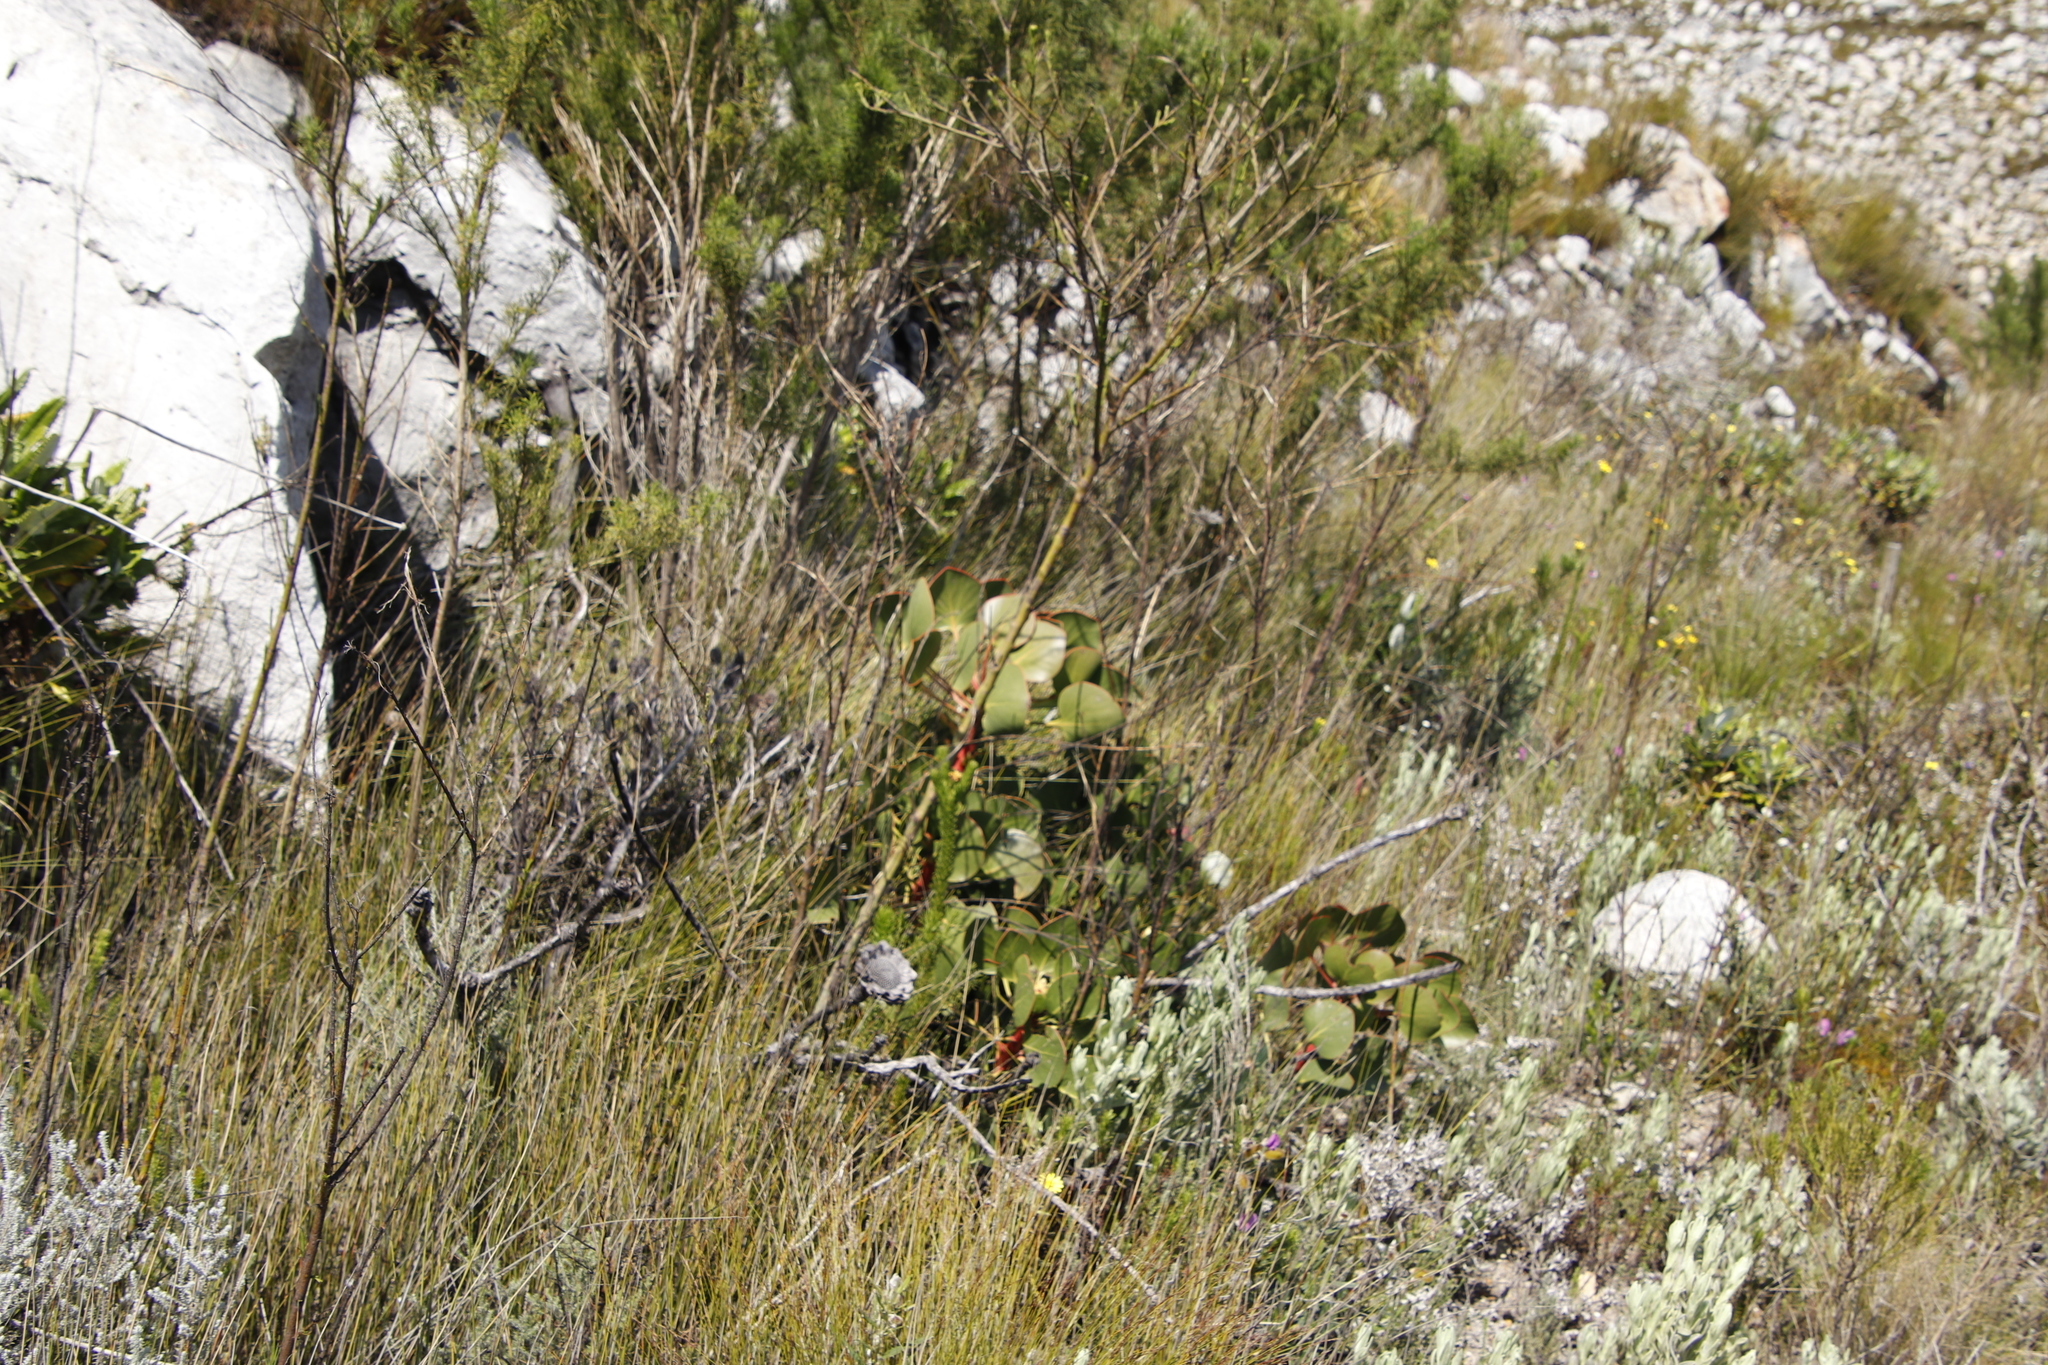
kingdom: Plantae
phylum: Tracheophyta
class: Magnoliopsida
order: Proteales
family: Proteaceae
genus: Protea
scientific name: Protea cynaroides
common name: King protea
